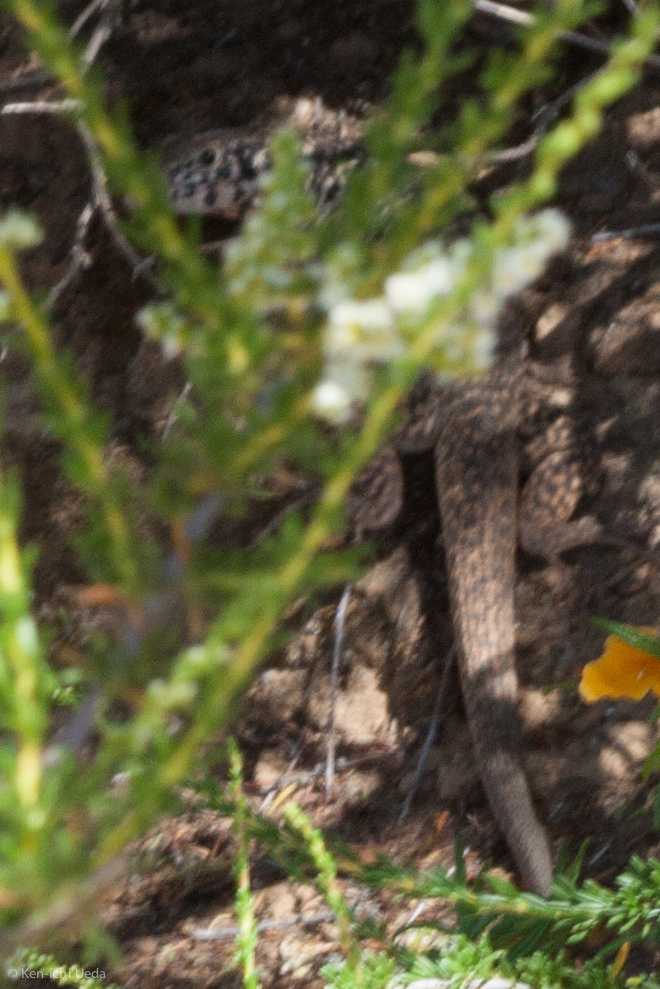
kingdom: Animalia
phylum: Chordata
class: Squamata
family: Teiidae
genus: Aspidoscelis
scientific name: Aspidoscelis tigris
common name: Tiger whiptail
